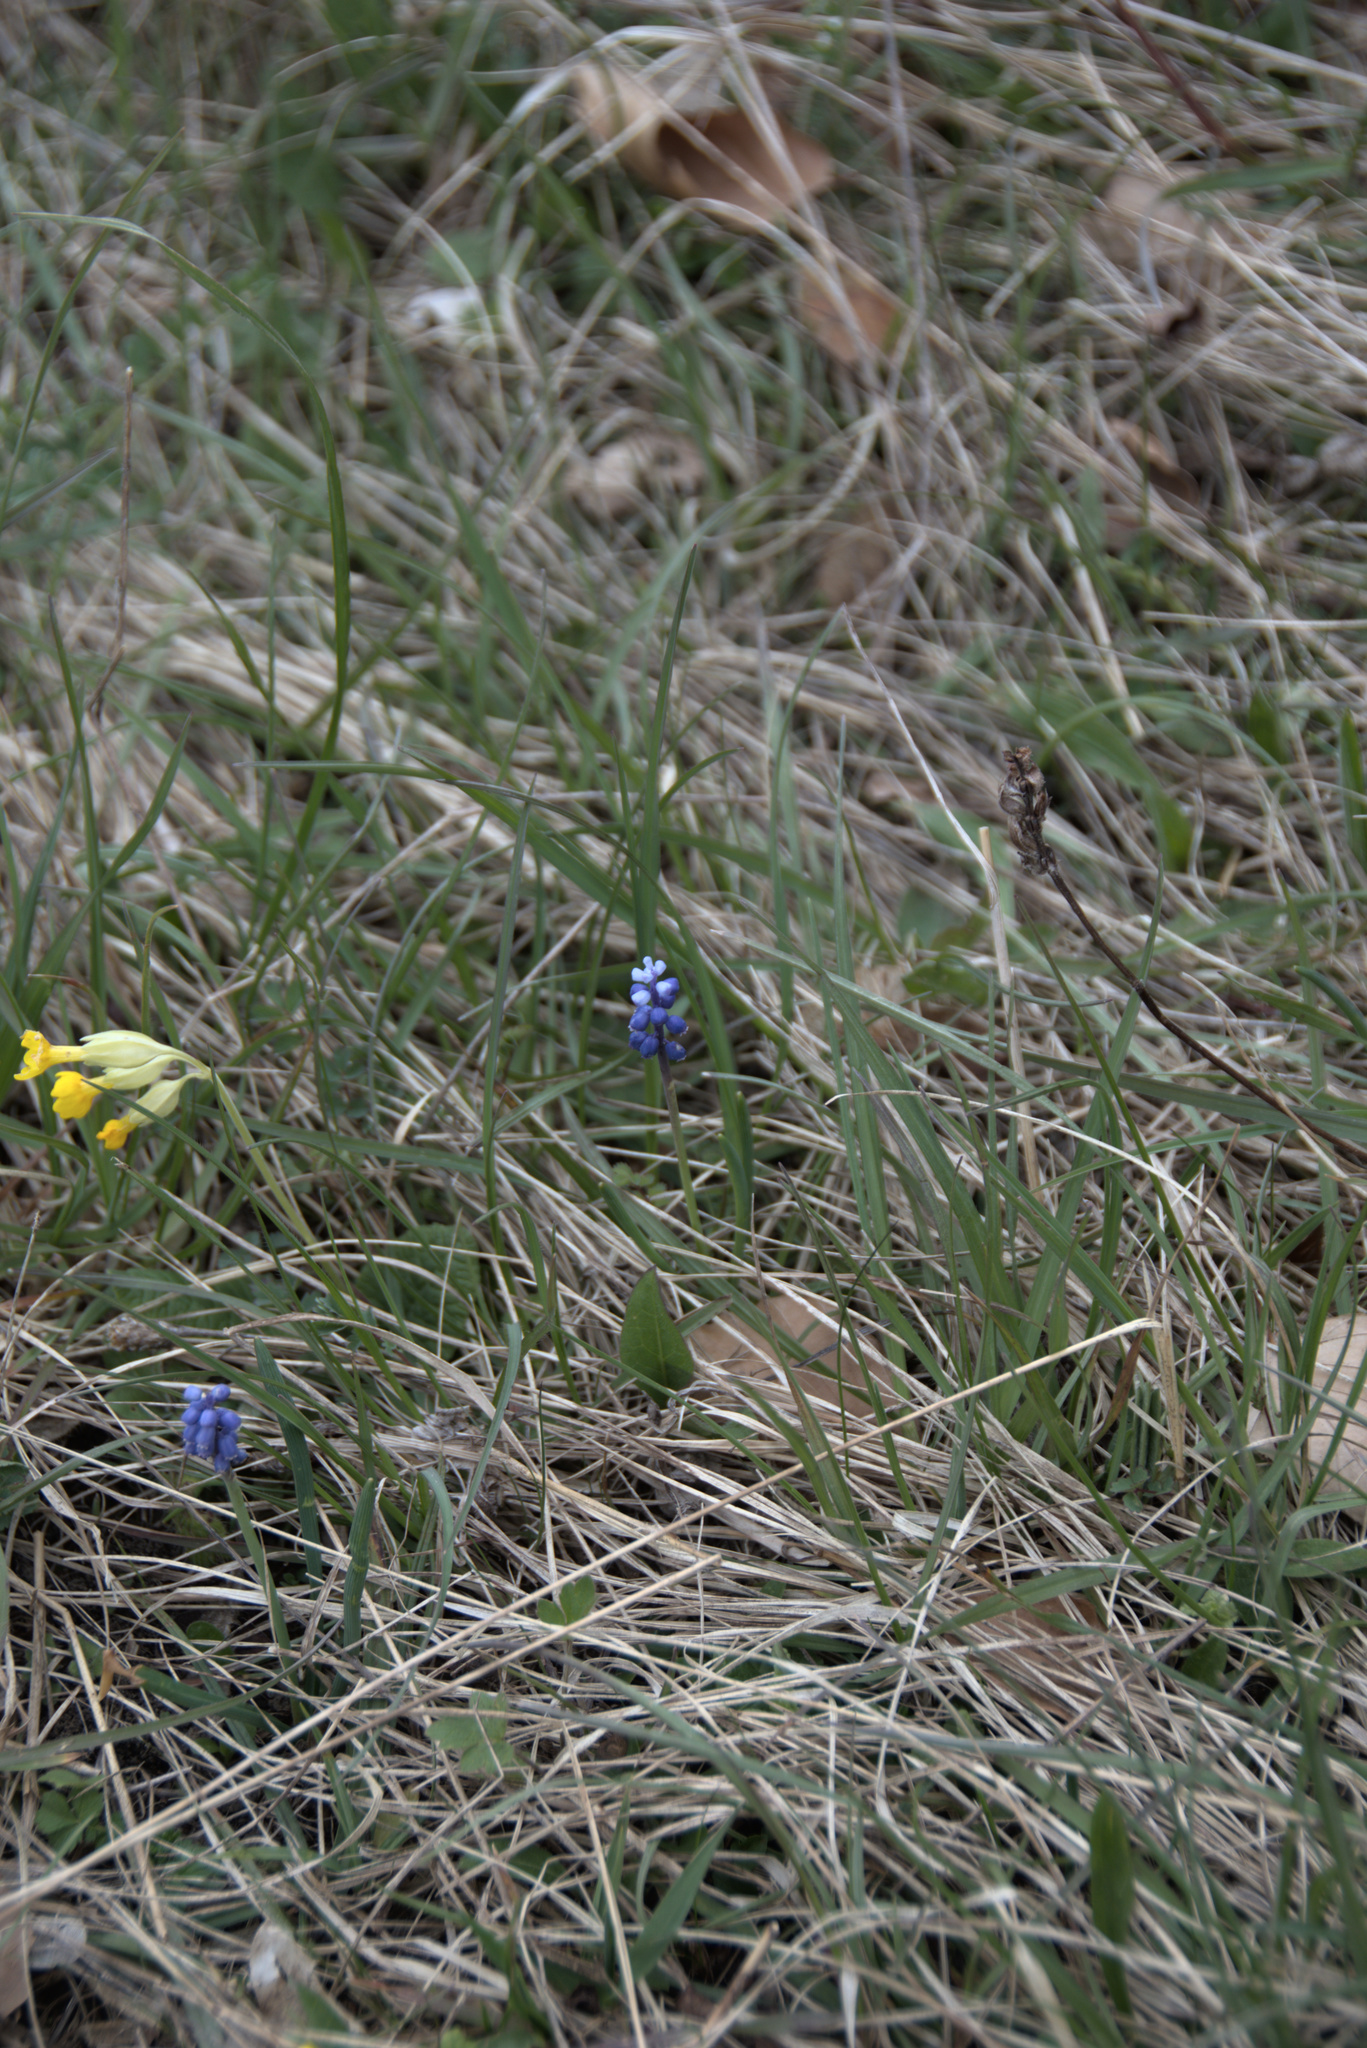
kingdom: Plantae
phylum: Tracheophyta
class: Liliopsida
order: Asparagales
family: Asparagaceae
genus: Muscari
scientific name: Muscari botryoides
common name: Compact grape-hyacinth
